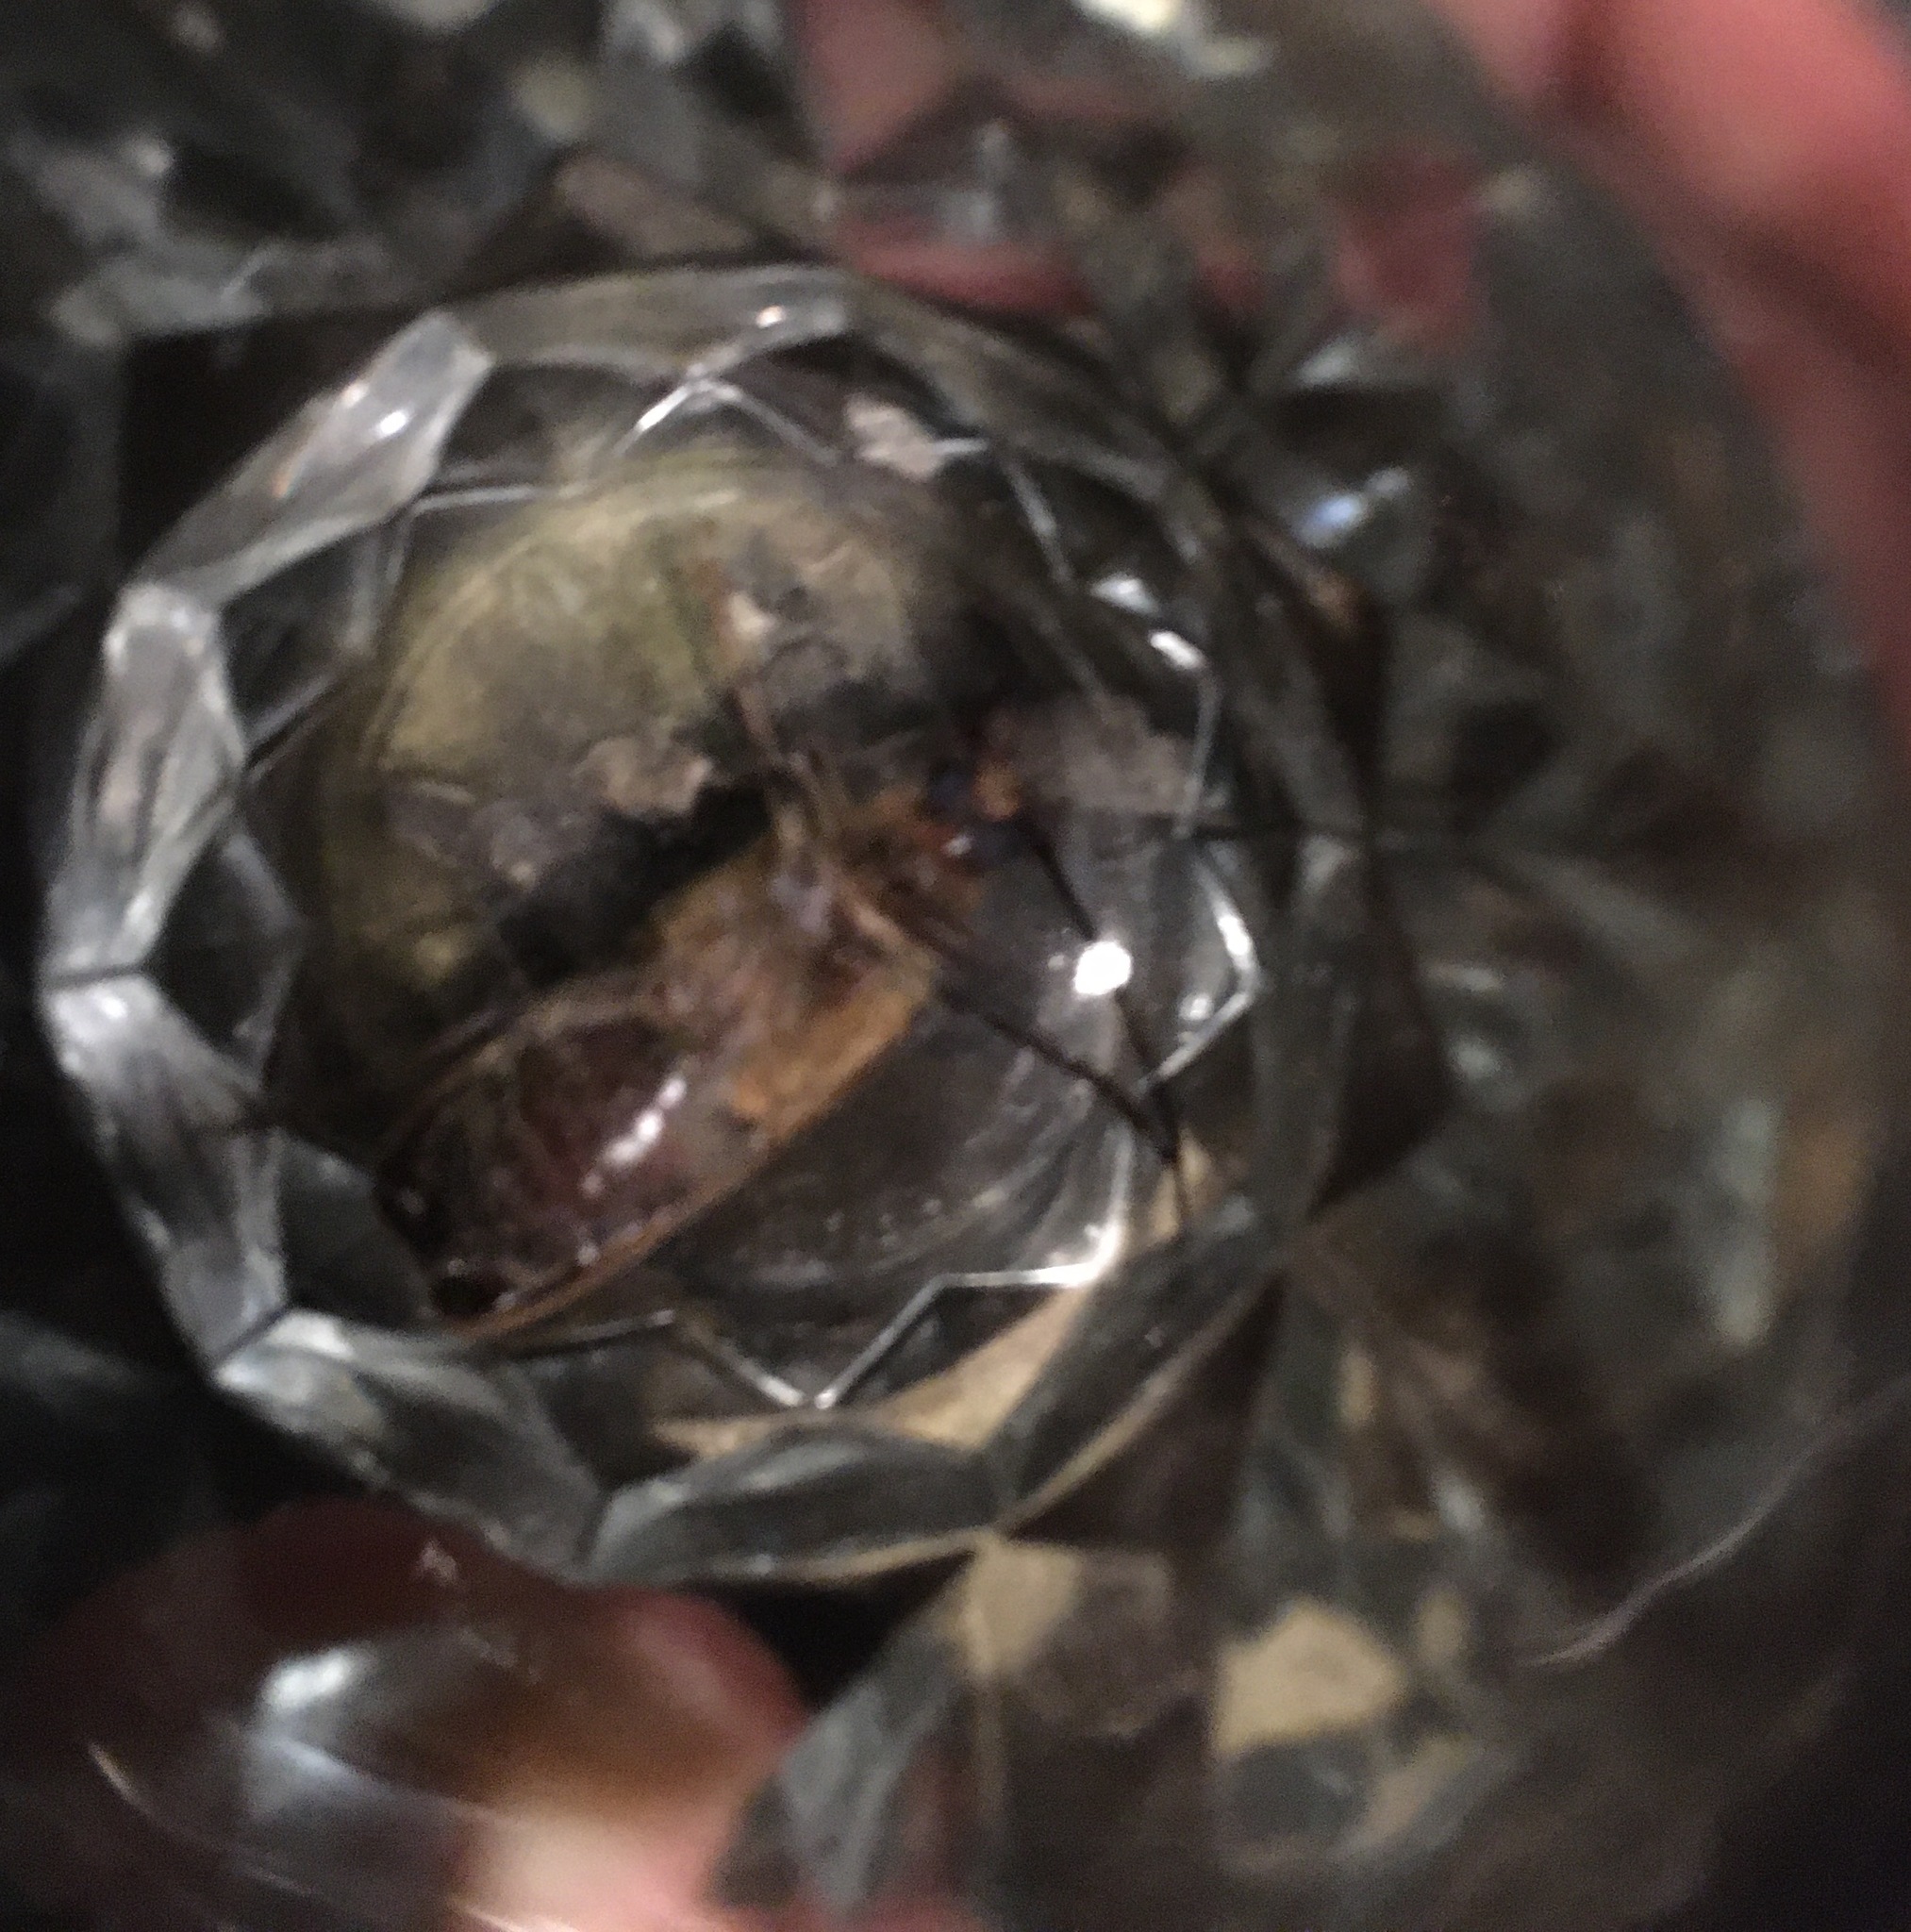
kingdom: Animalia
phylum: Arthropoda
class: Insecta
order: Coleoptera
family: Cerambycidae
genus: Prionoplus
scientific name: Prionoplus reticularis
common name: Huhu beetle
